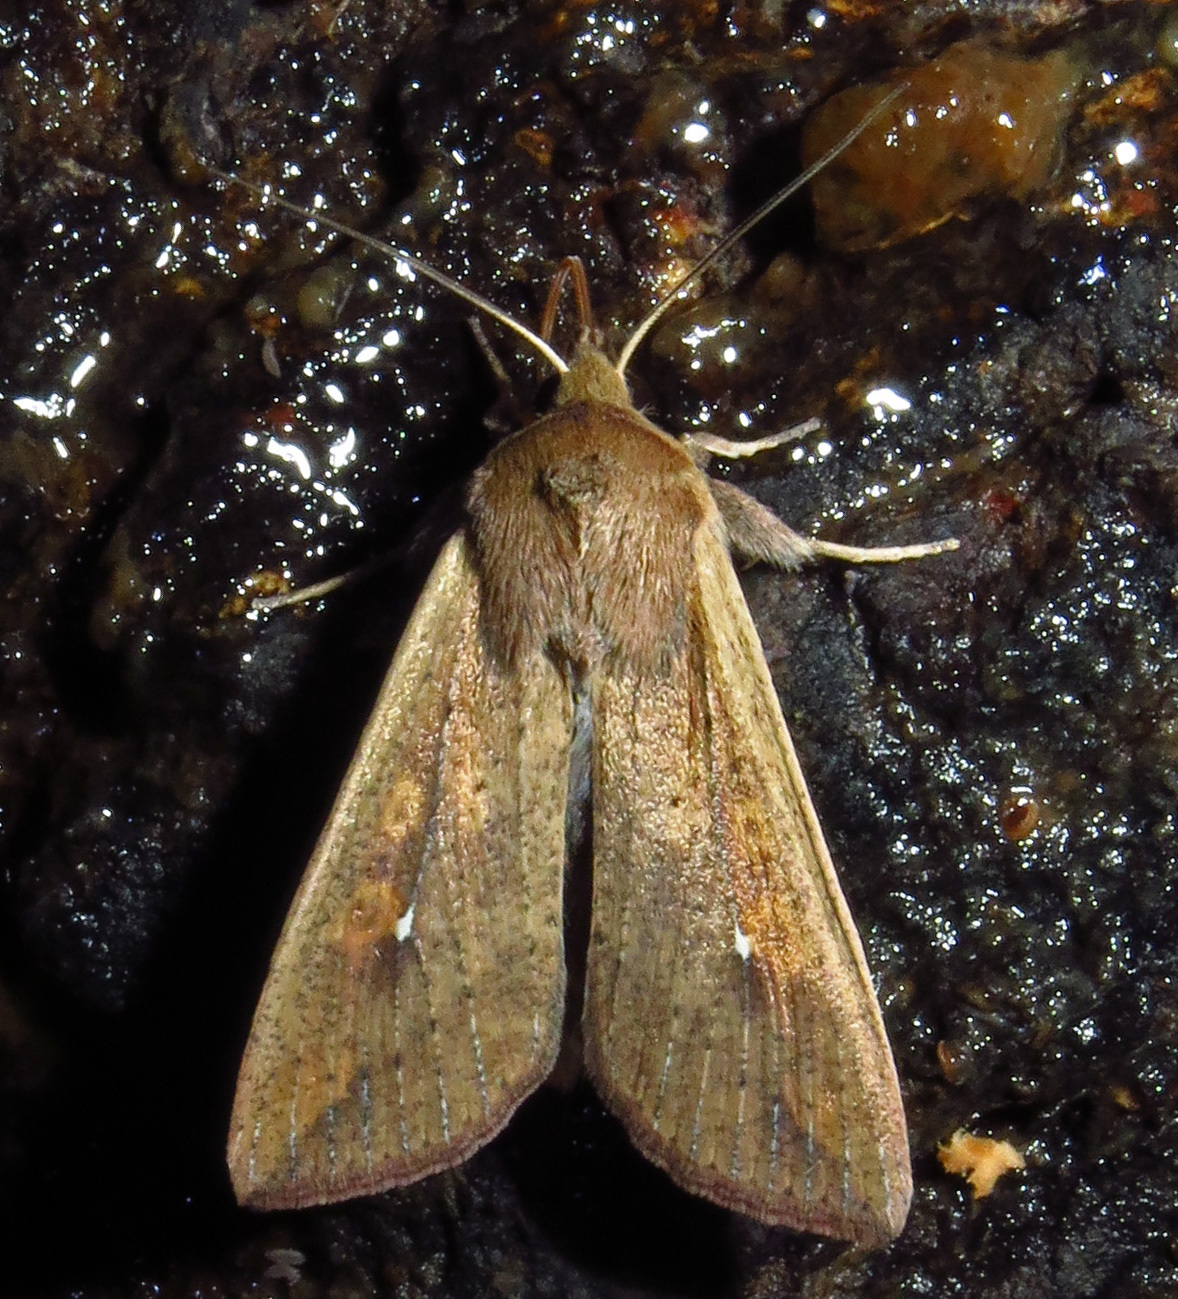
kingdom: Animalia
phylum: Arthropoda
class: Insecta
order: Lepidoptera
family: Noctuidae
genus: Mythimna
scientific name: Mythimna unipuncta
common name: White-speck
